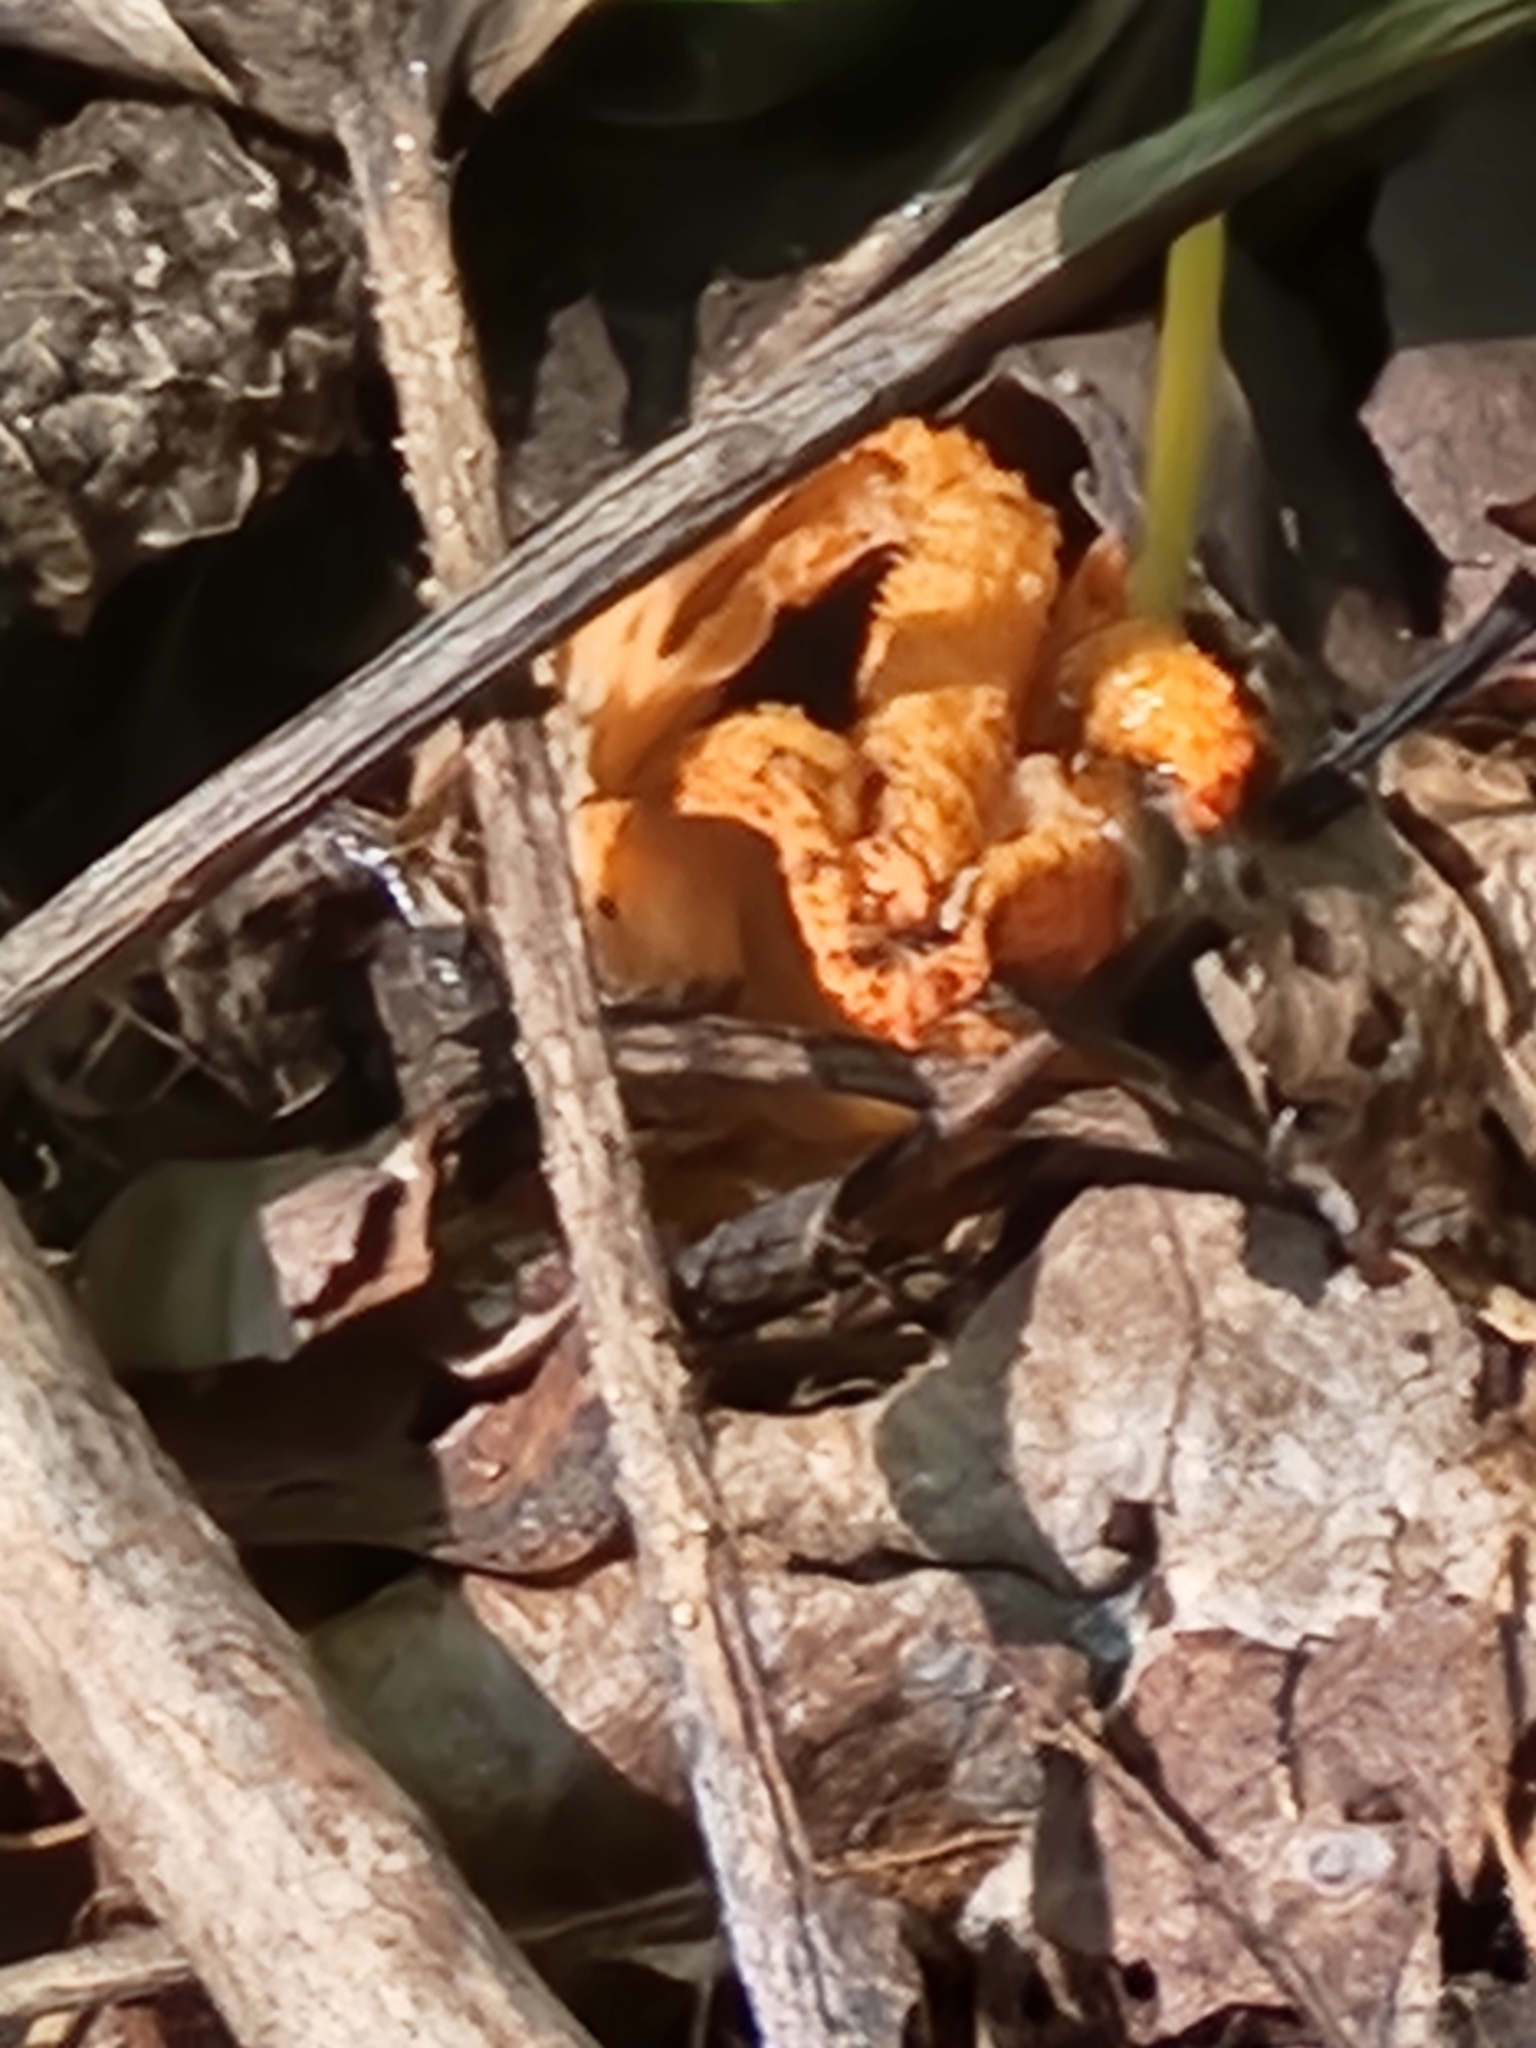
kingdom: Fungi
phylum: Basidiomycota
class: Agaricomycetes
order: Phallales
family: Phallaceae
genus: Pseudocolus
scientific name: Pseudocolus fusiformis
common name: Stinky squid
